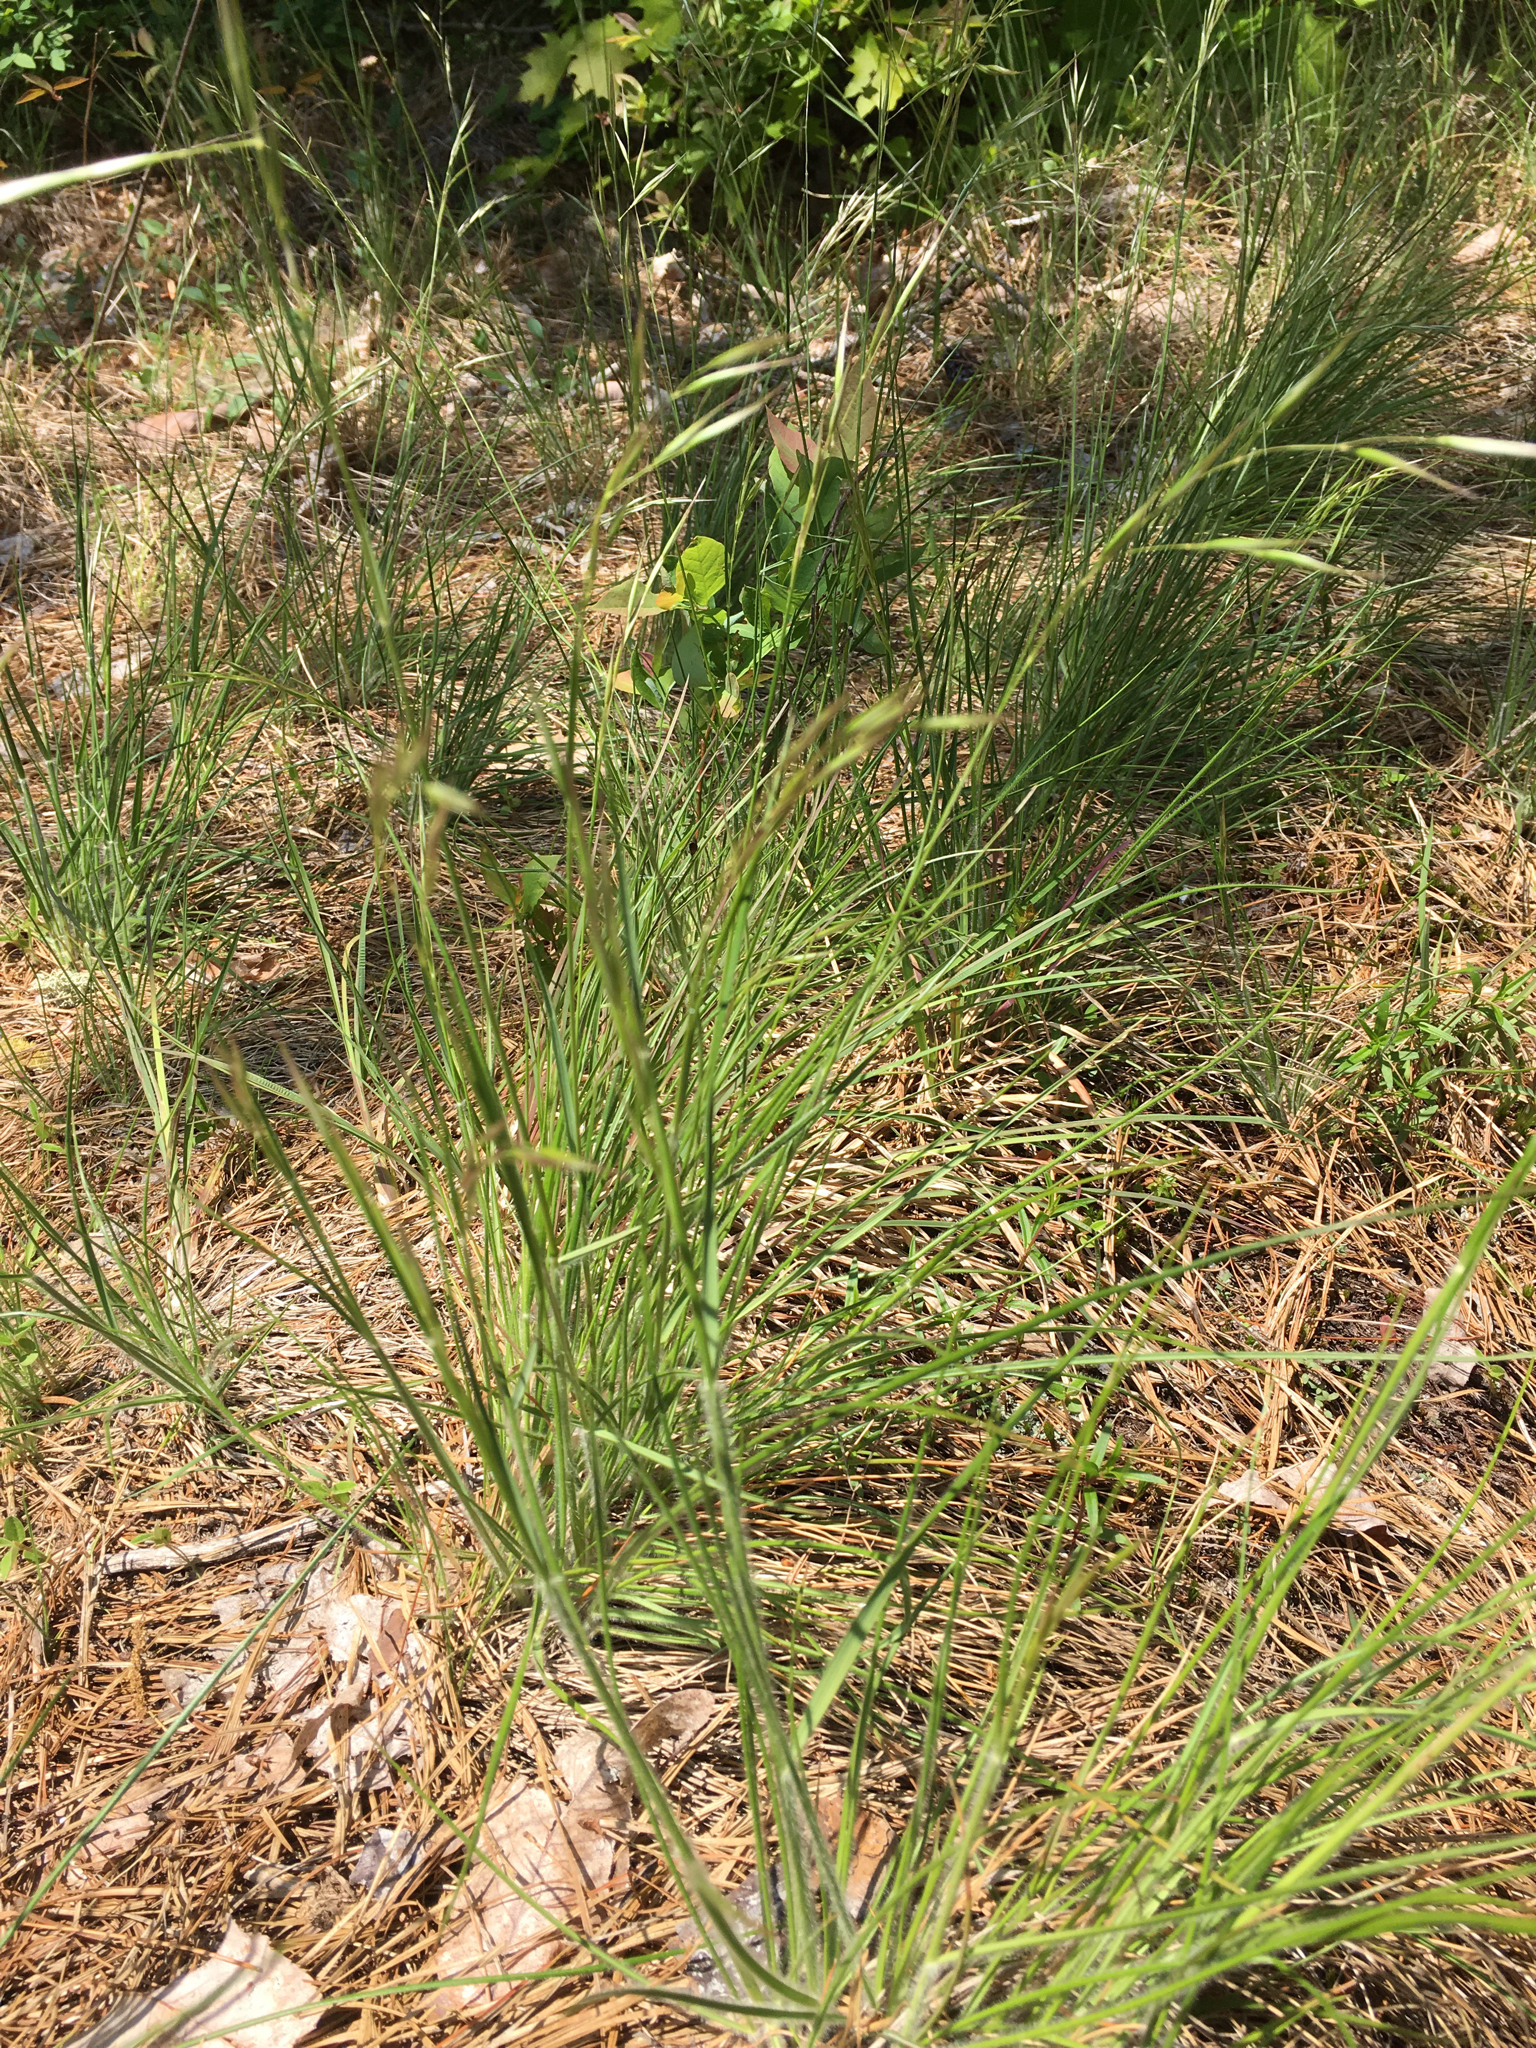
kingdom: Plantae
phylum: Tracheophyta
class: Liliopsida
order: Poales
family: Poaceae
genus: Danthonia
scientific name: Danthonia sericea
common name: Downy danthonia
